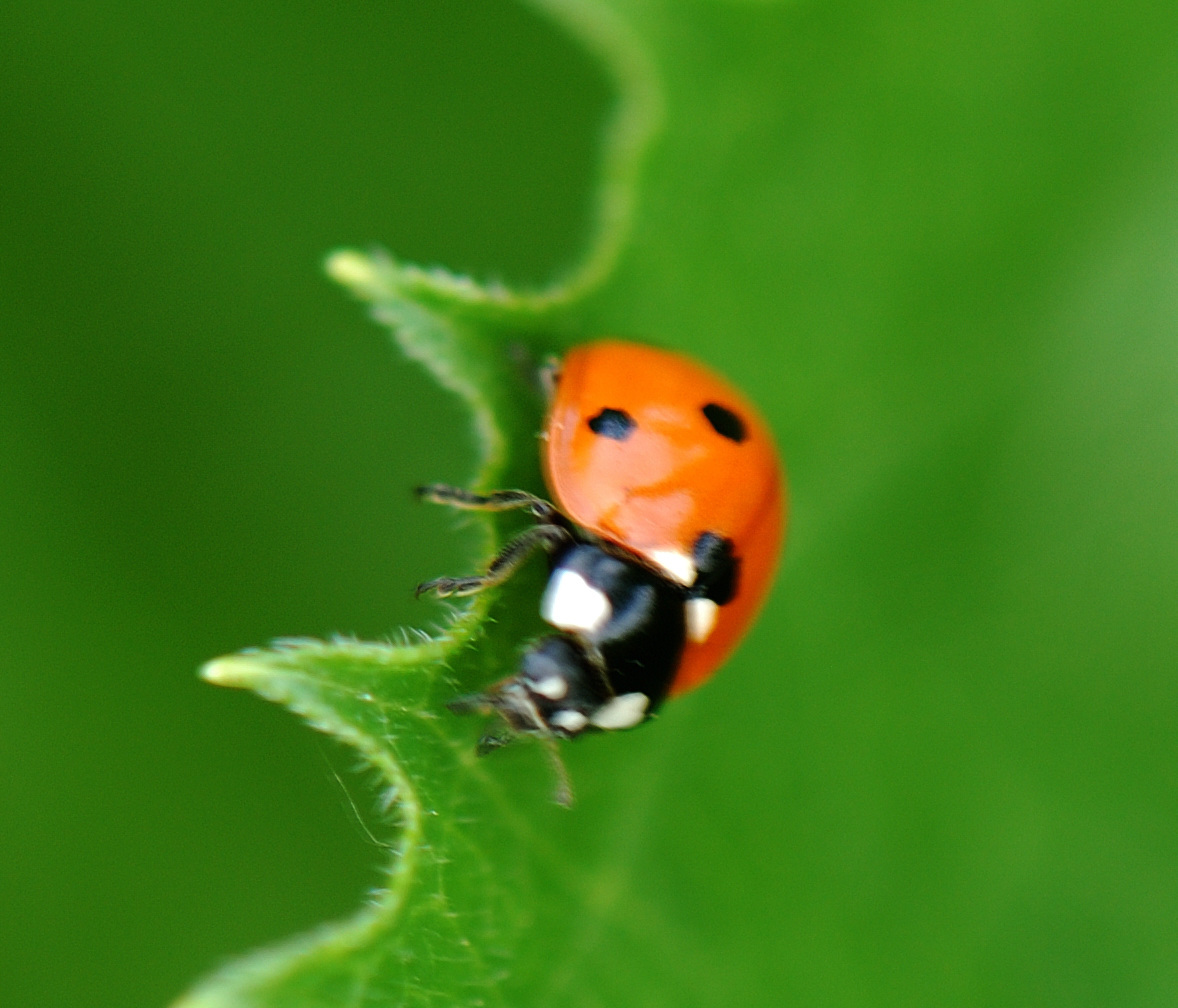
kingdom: Animalia
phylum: Arthropoda
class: Insecta
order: Coleoptera
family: Coccinellidae
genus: Coccinella
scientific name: Coccinella septempunctata
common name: Sevenspotted lady beetle
